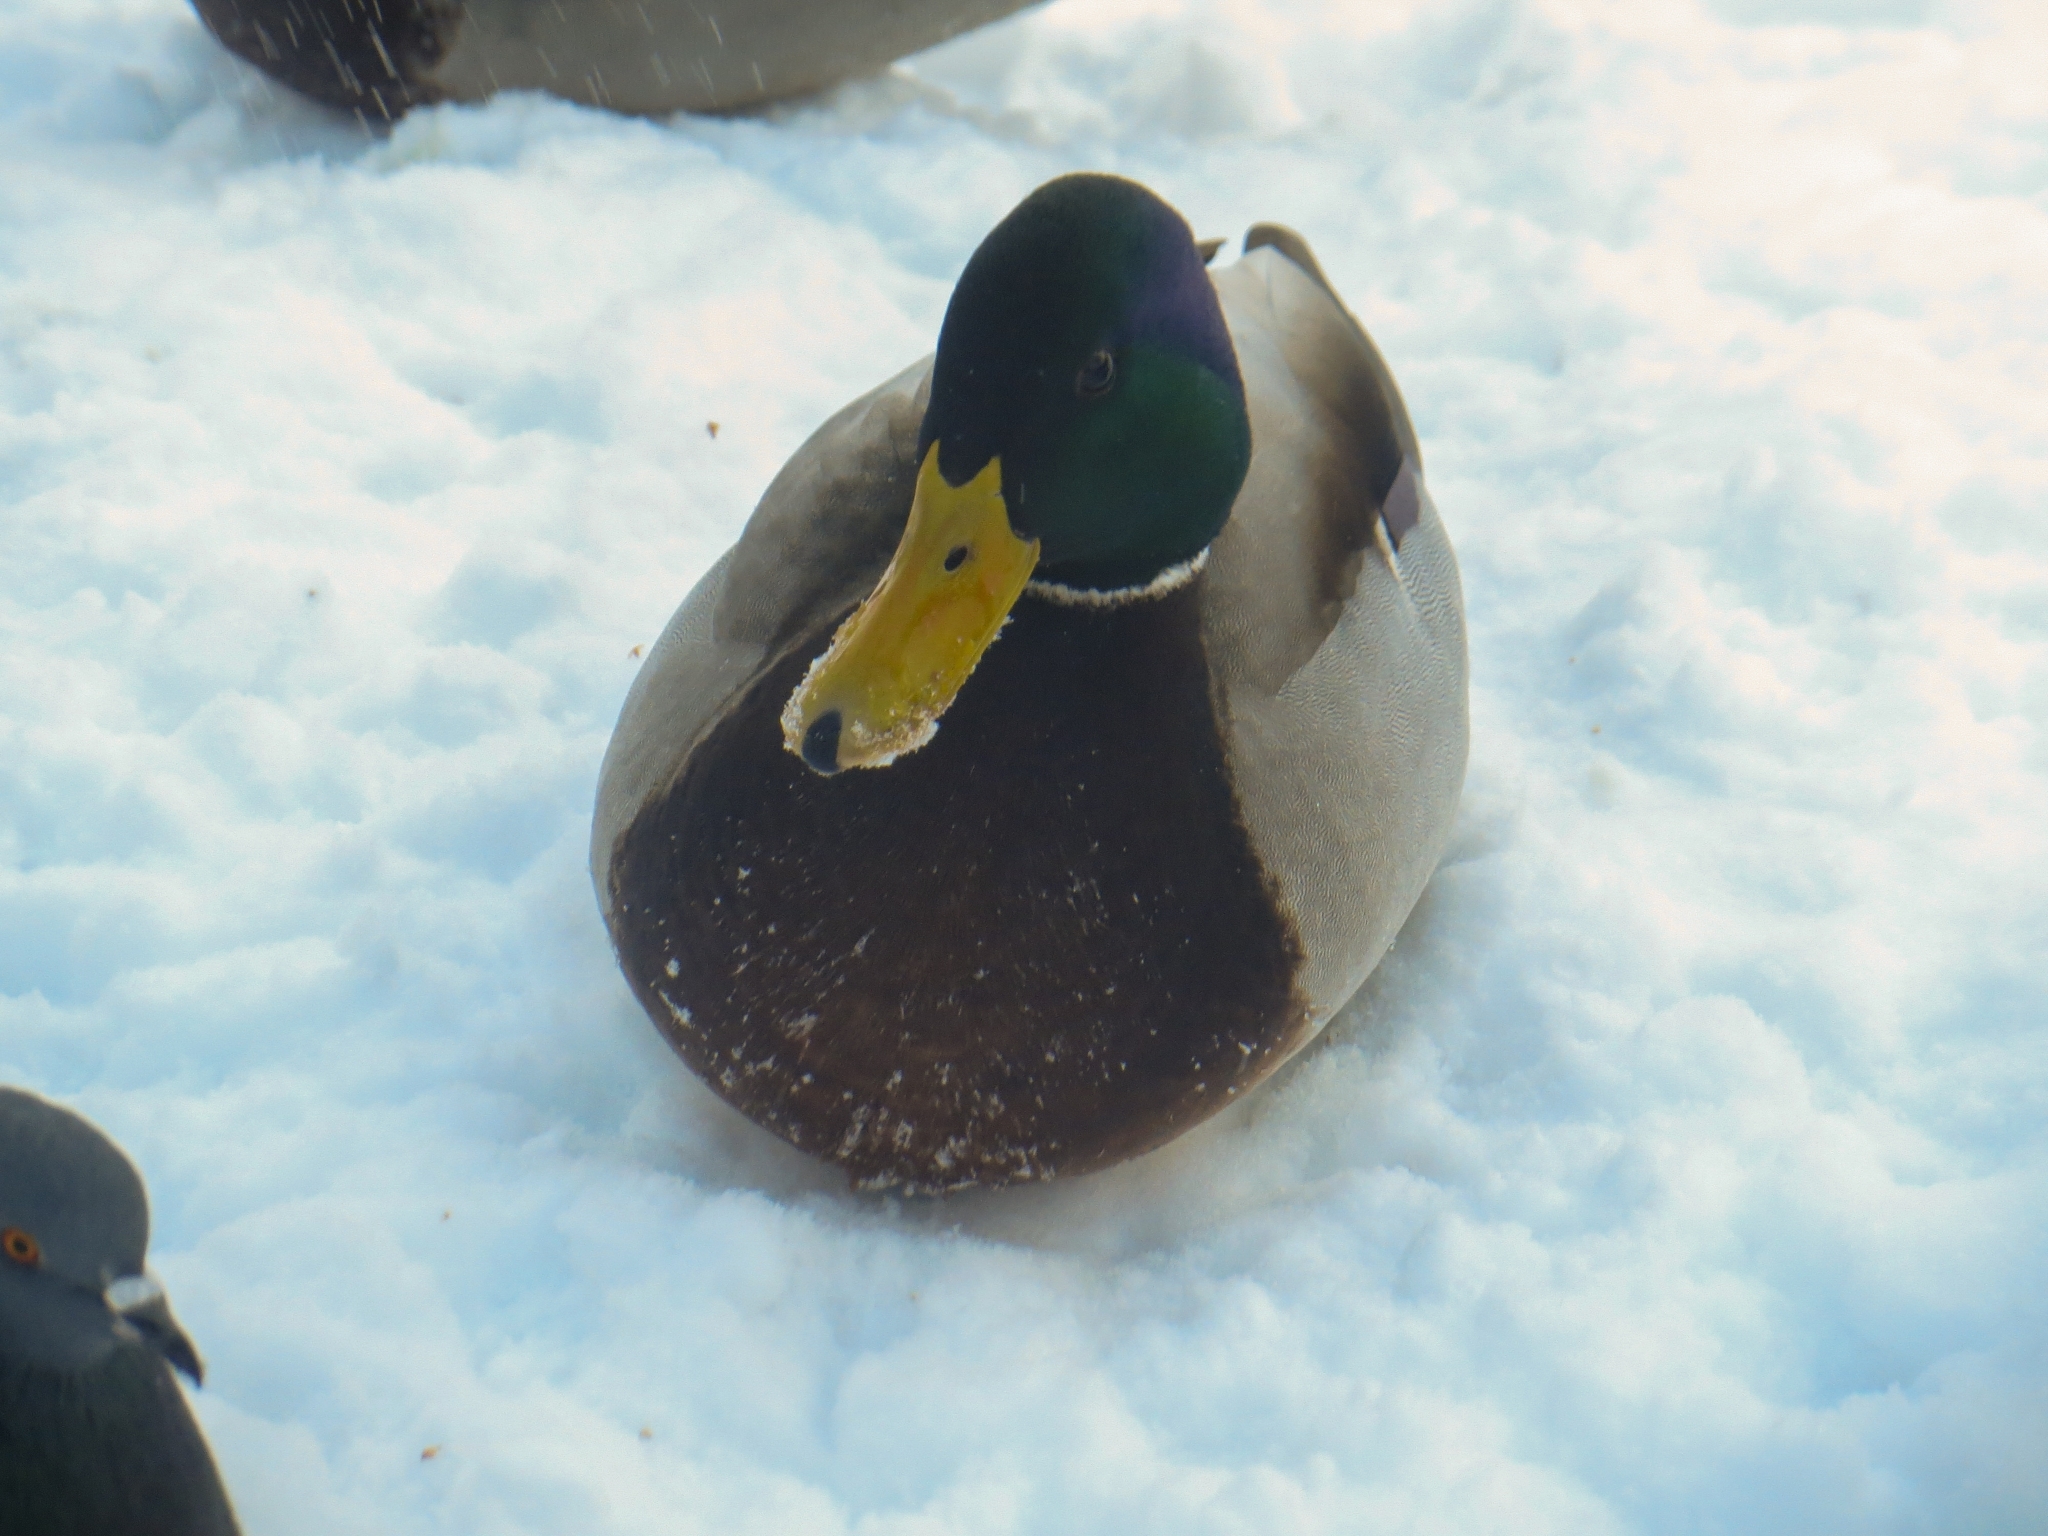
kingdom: Animalia
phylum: Chordata
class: Aves
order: Anseriformes
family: Anatidae
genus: Anas
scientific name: Anas platyrhynchos
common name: Mallard
